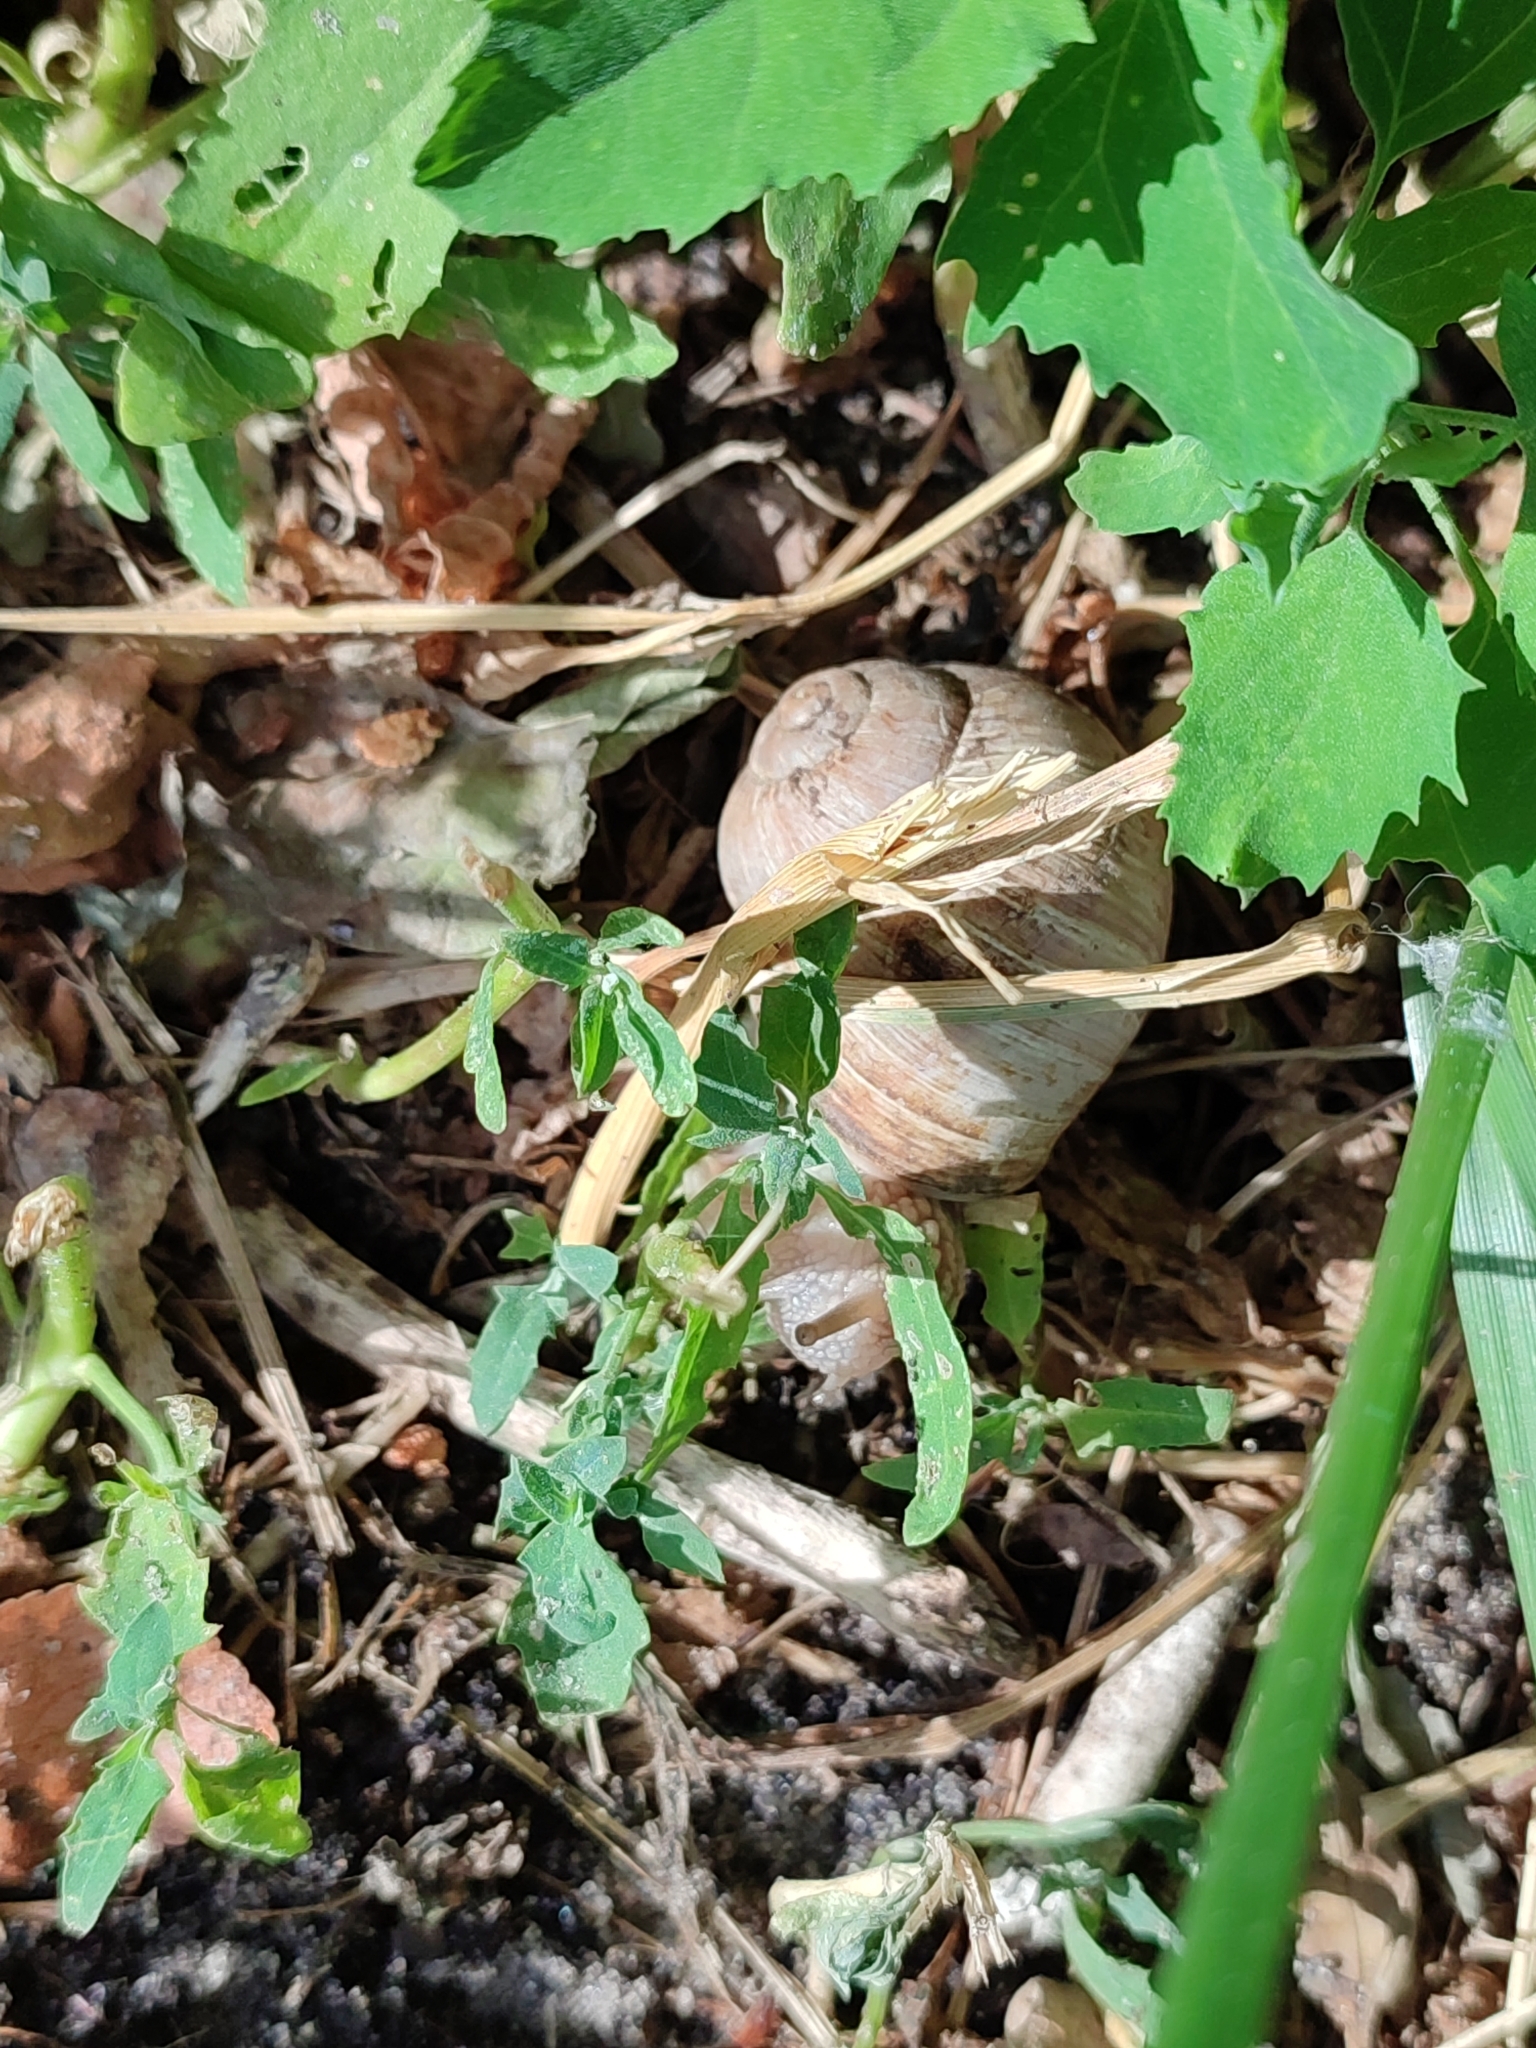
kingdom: Animalia
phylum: Mollusca
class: Gastropoda
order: Stylommatophora
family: Helicidae
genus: Helix
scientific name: Helix pomatia
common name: Roman snail
